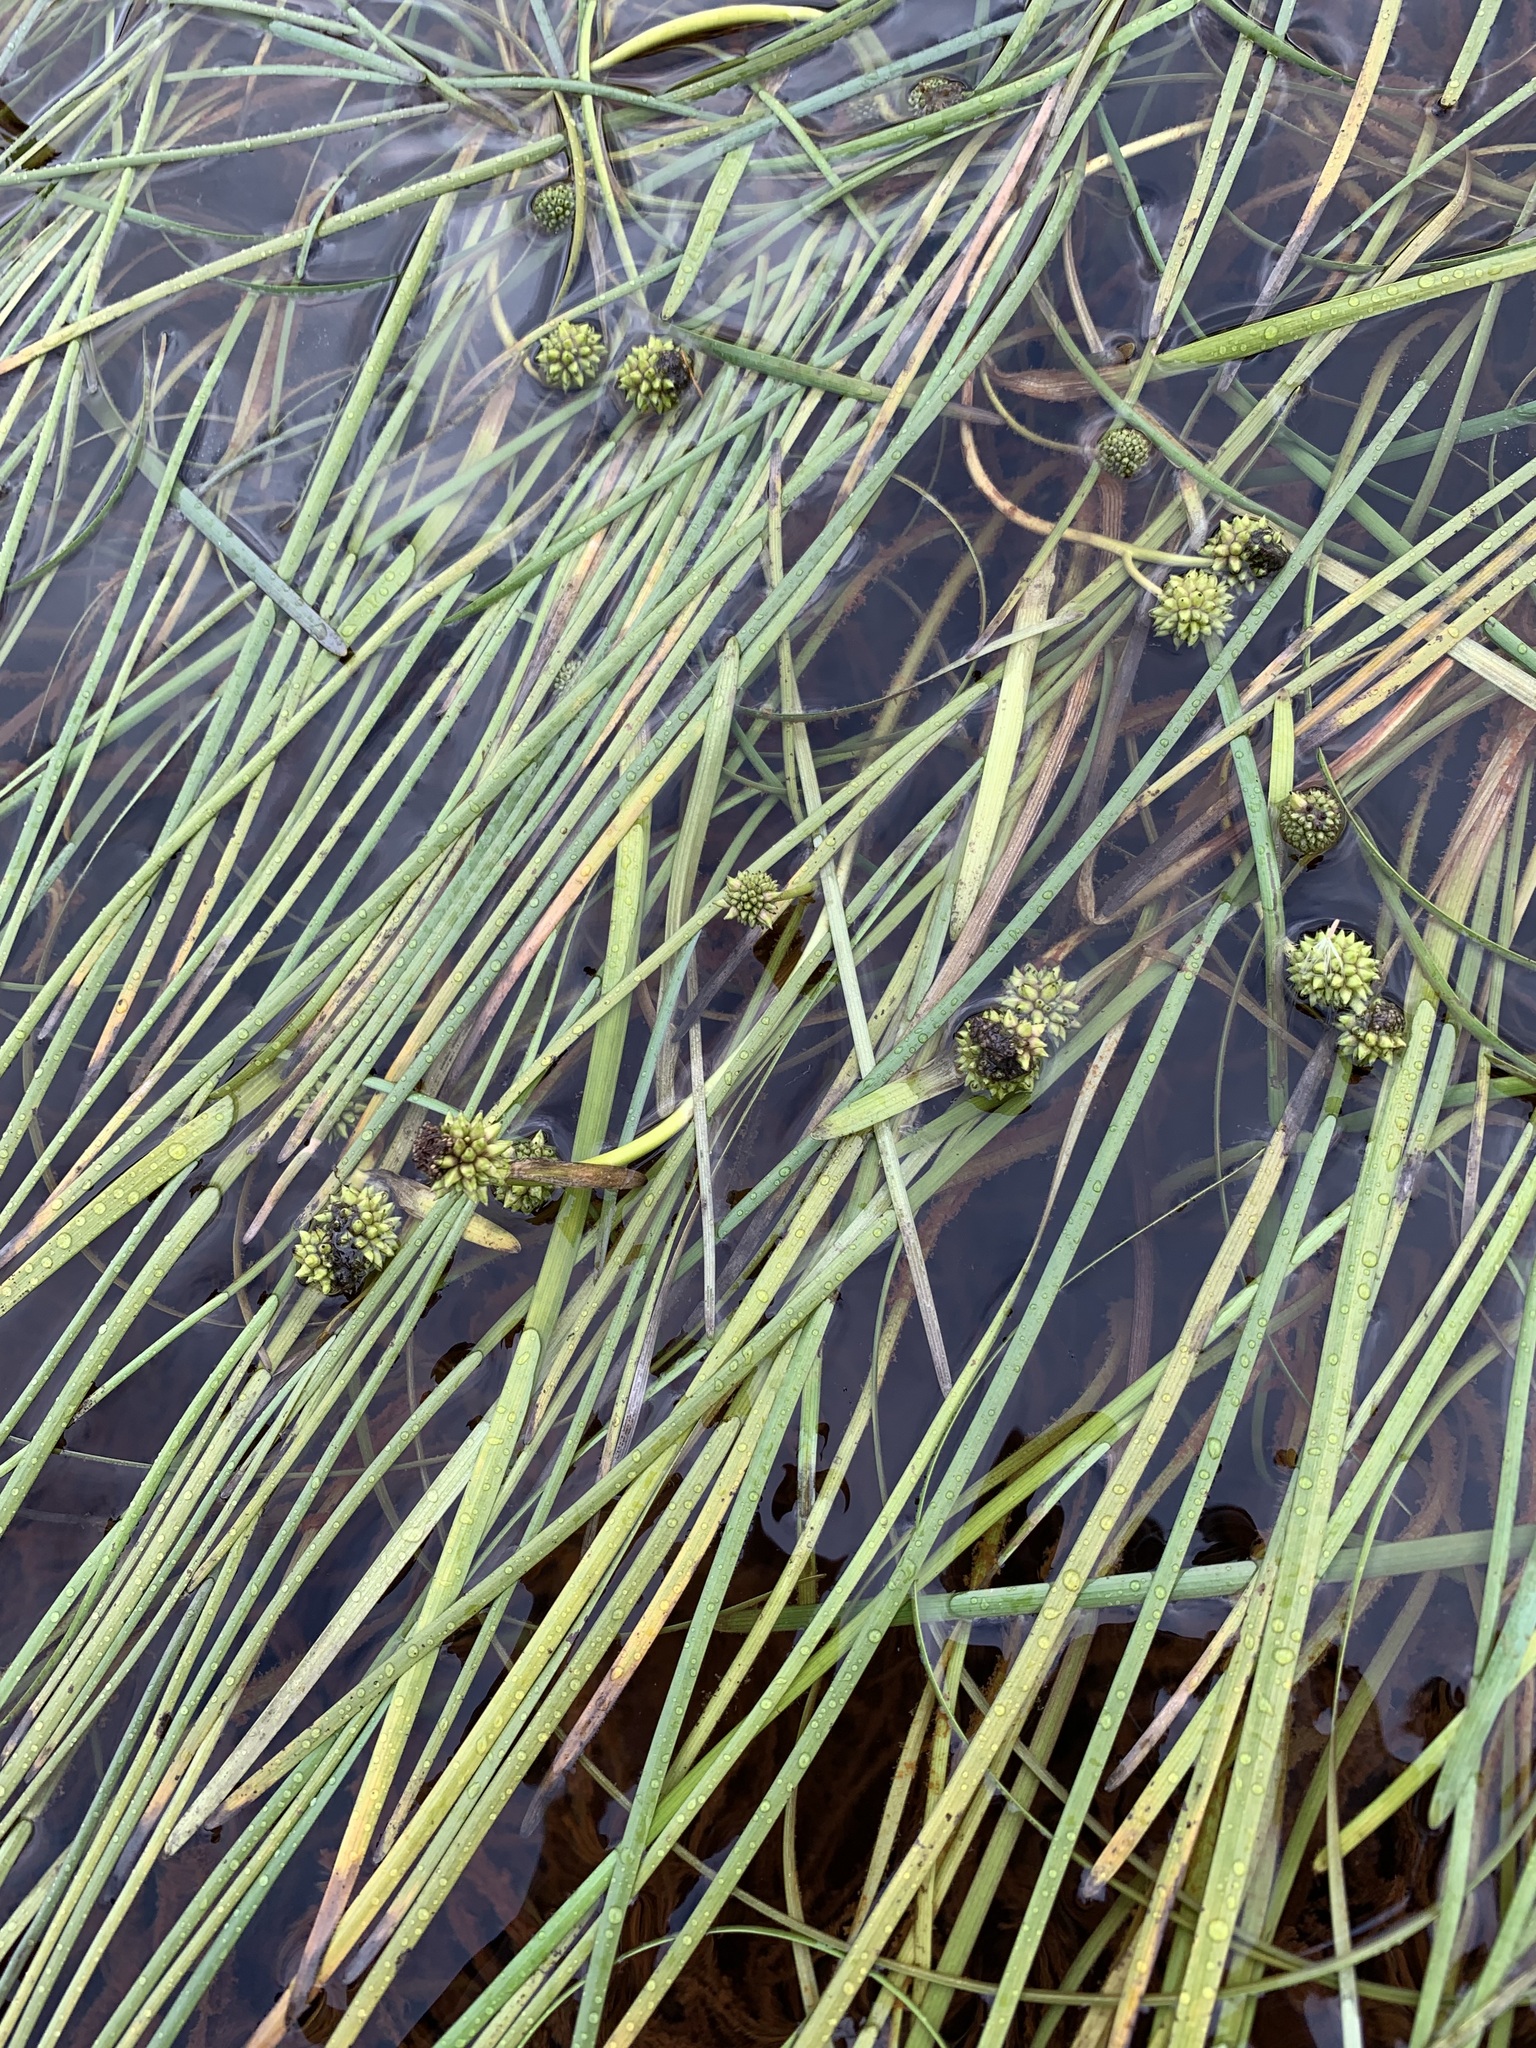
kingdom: Plantae
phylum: Tracheophyta
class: Liliopsida
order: Poales
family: Typhaceae
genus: Sparganium
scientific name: Sparganium hyperboreum
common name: Arctic burreed
